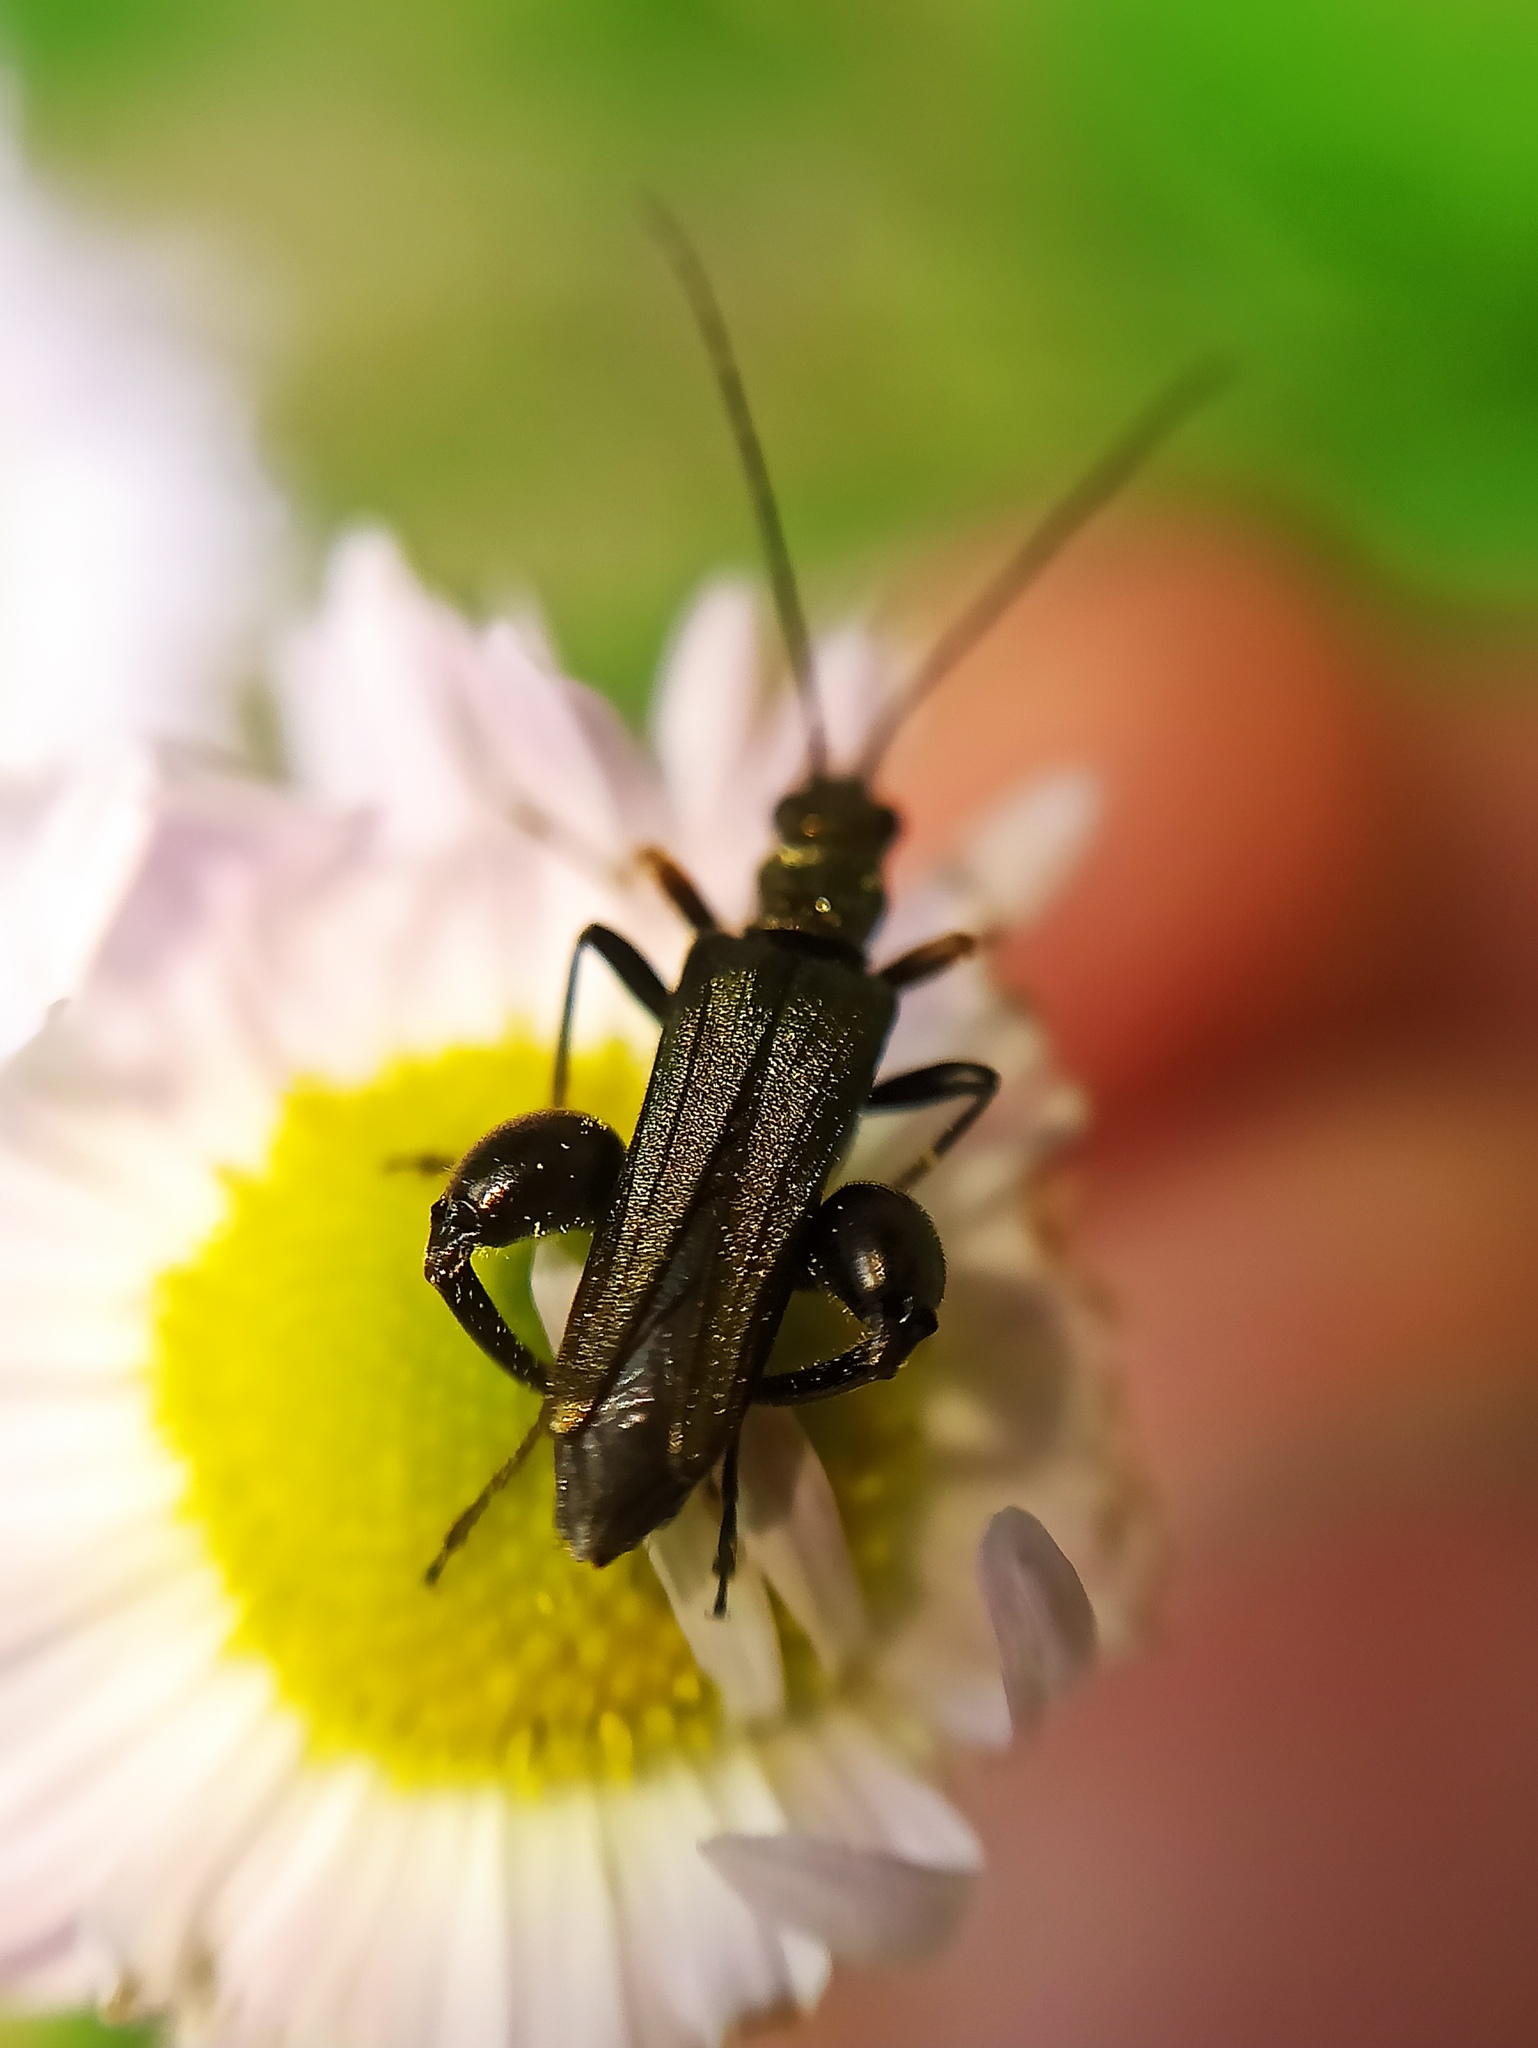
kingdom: Animalia
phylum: Arthropoda
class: Insecta
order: Coleoptera
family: Oedemeridae
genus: Oedemera
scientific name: Oedemera flavipes
